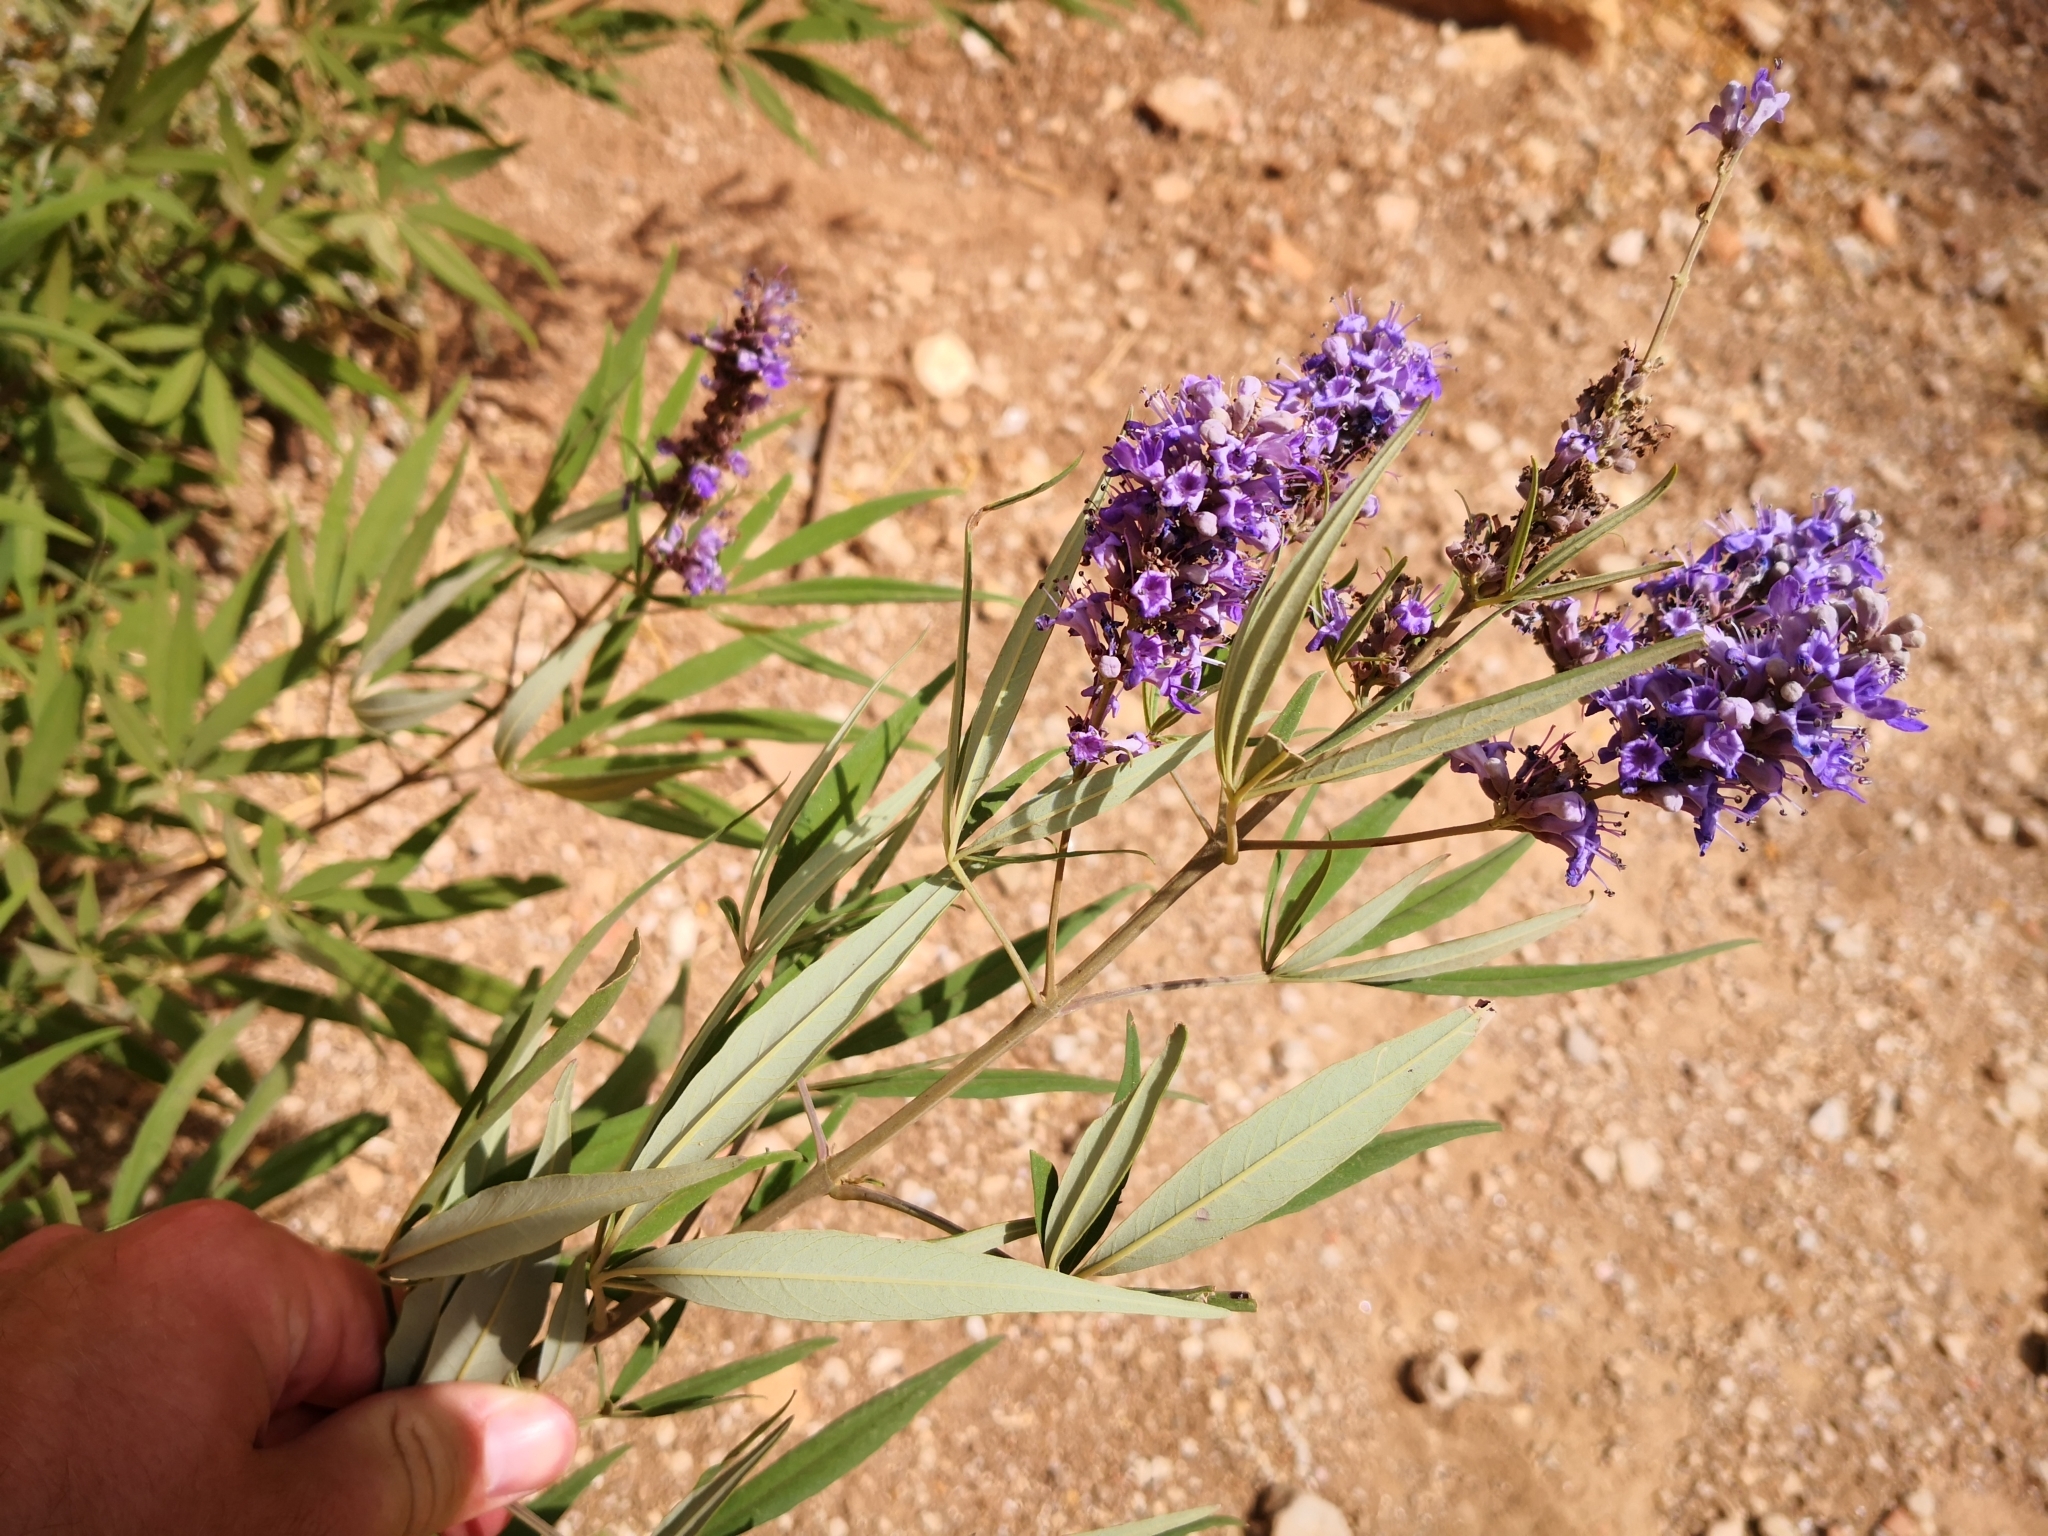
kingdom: Plantae
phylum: Tracheophyta
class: Magnoliopsida
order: Lamiales
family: Lamiaceae
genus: Vitex
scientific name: Vitex agnus-castus
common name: Chasteberry
